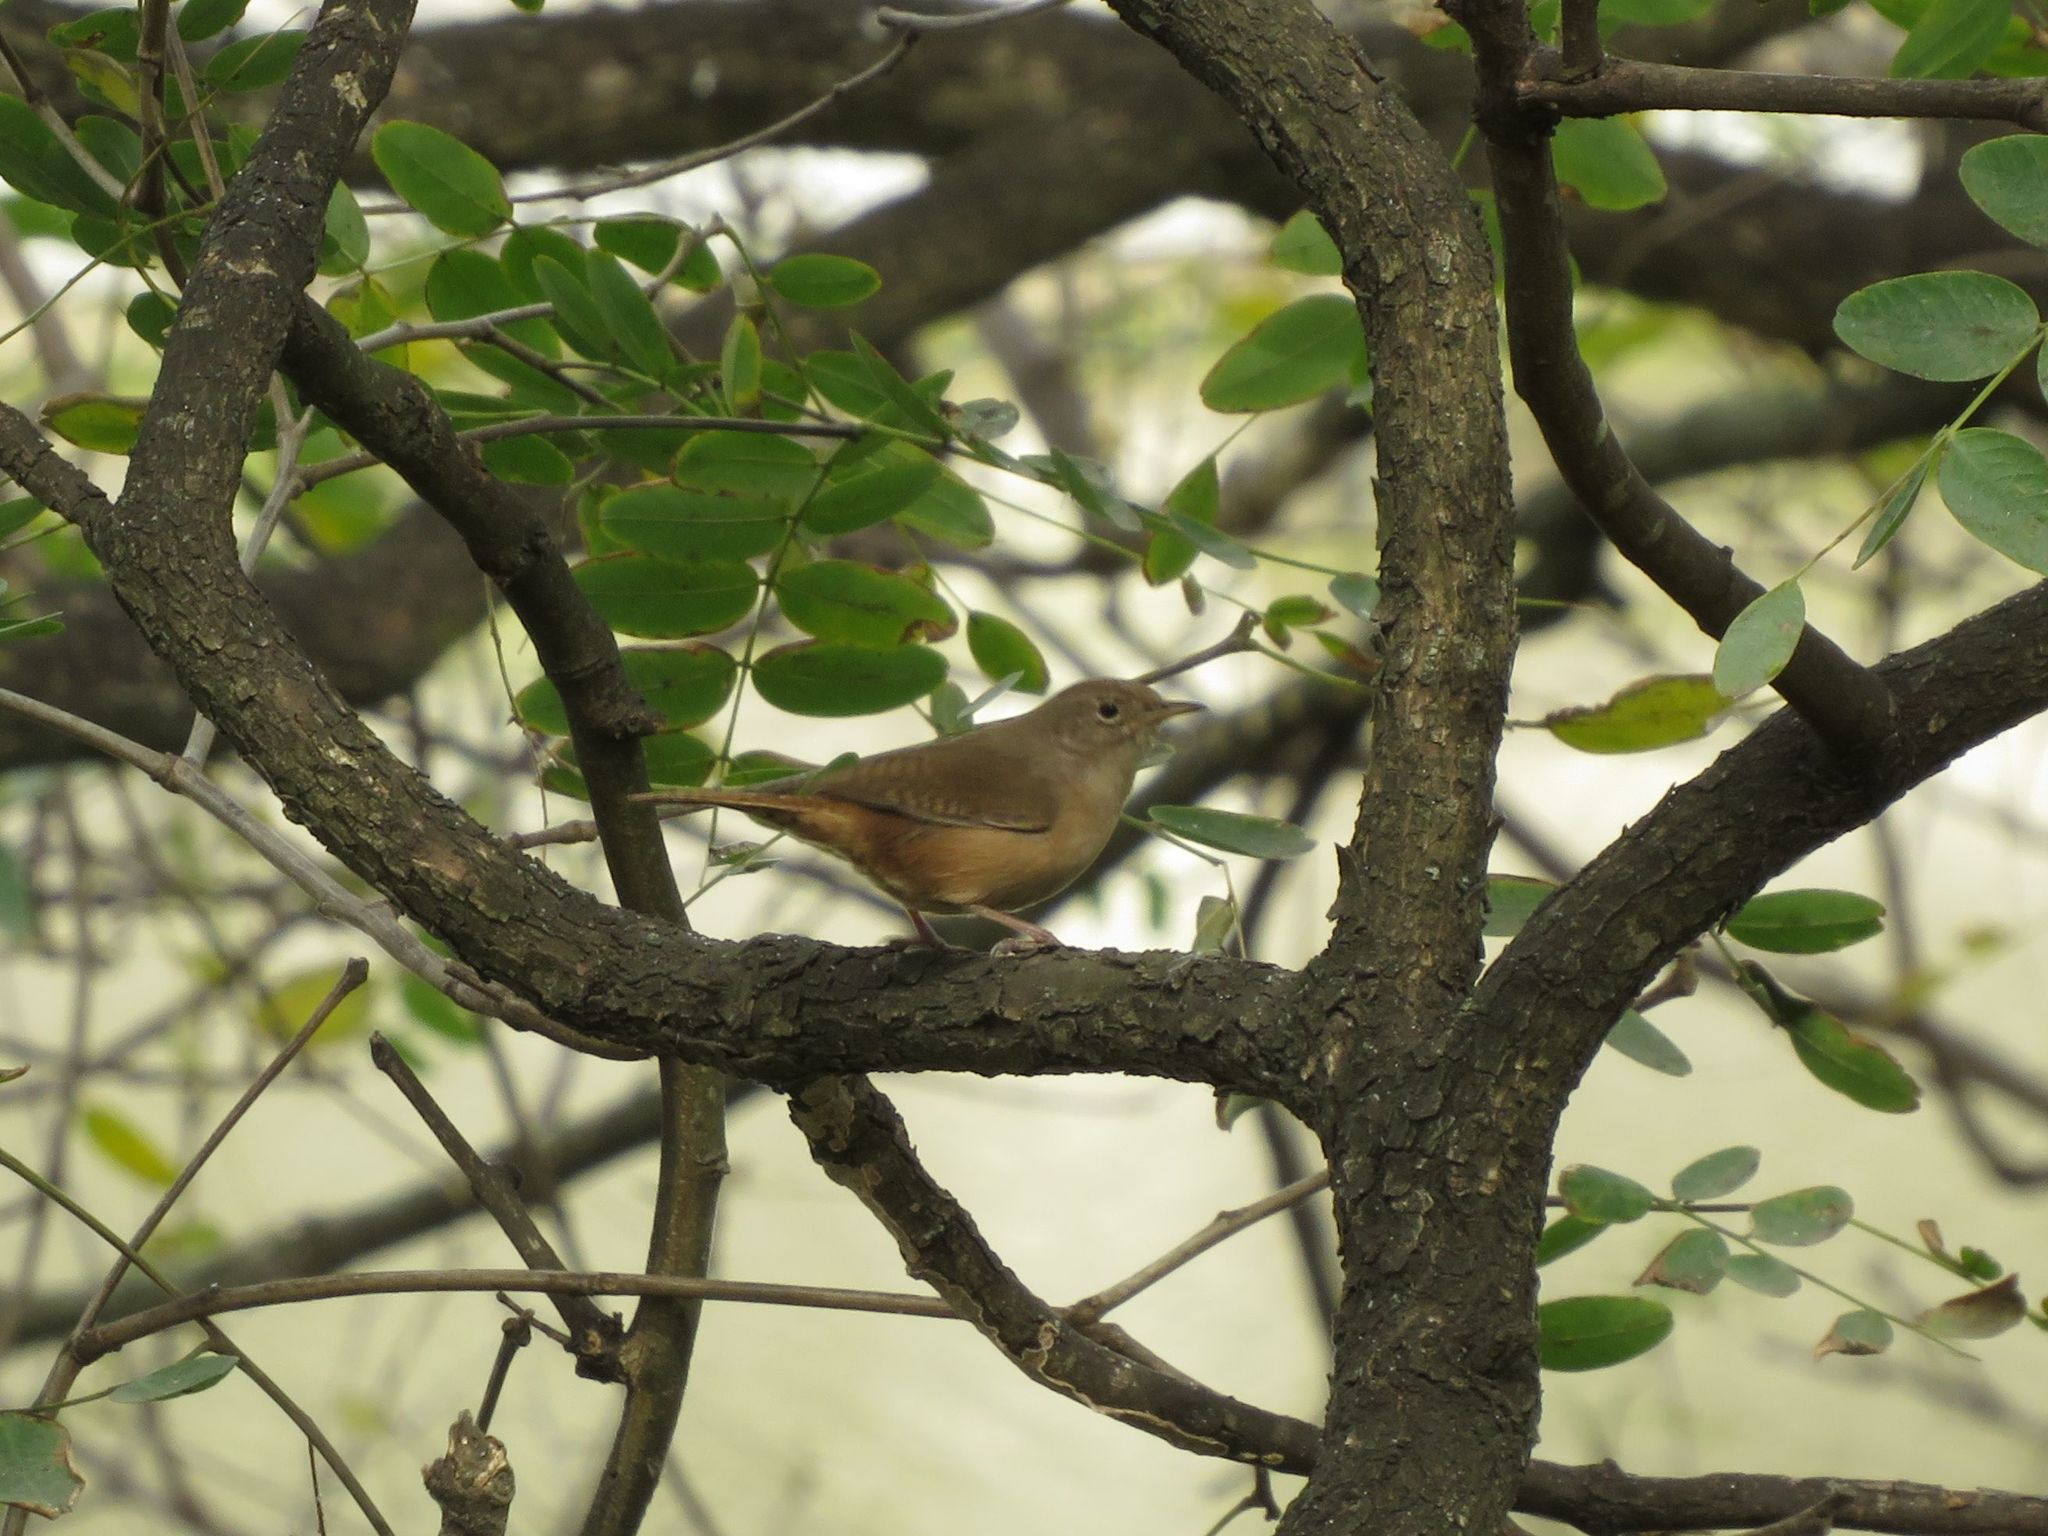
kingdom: Animalia
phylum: Chordata
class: Aves
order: Passeriformes
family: Troglodytidae
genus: Troglodytes
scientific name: Troglodytes aedon
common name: House wren
